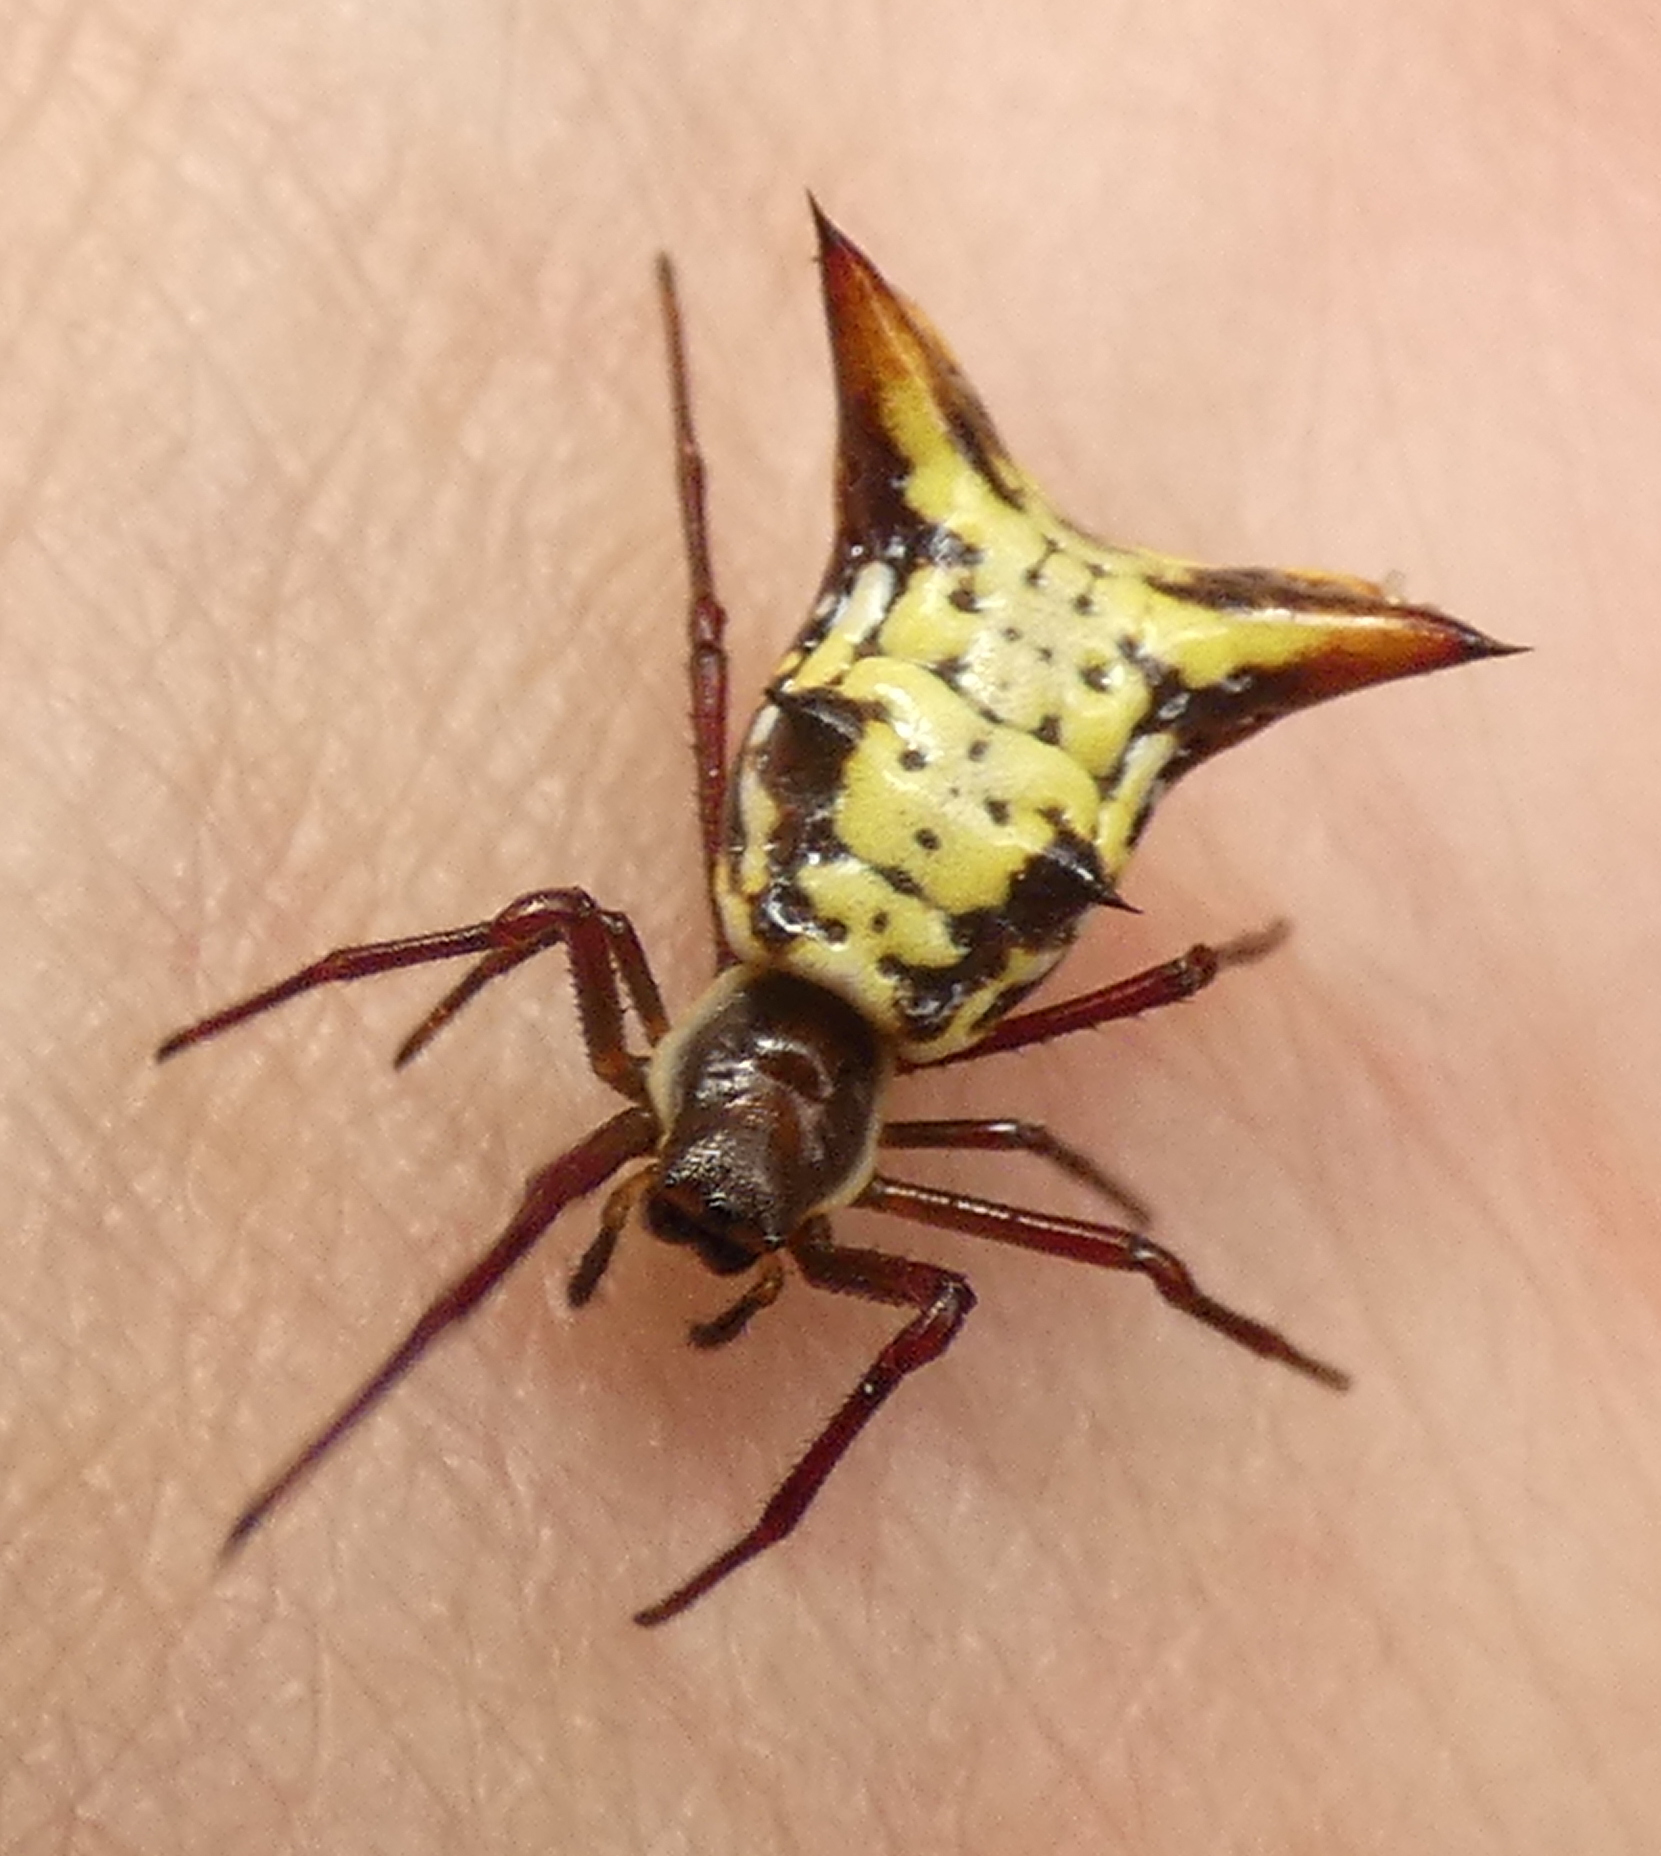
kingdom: Animalia
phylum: Arthropoda
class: Arachnida
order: Araneae
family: Araneidae
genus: Micrathena
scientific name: Micrathena fissispina
